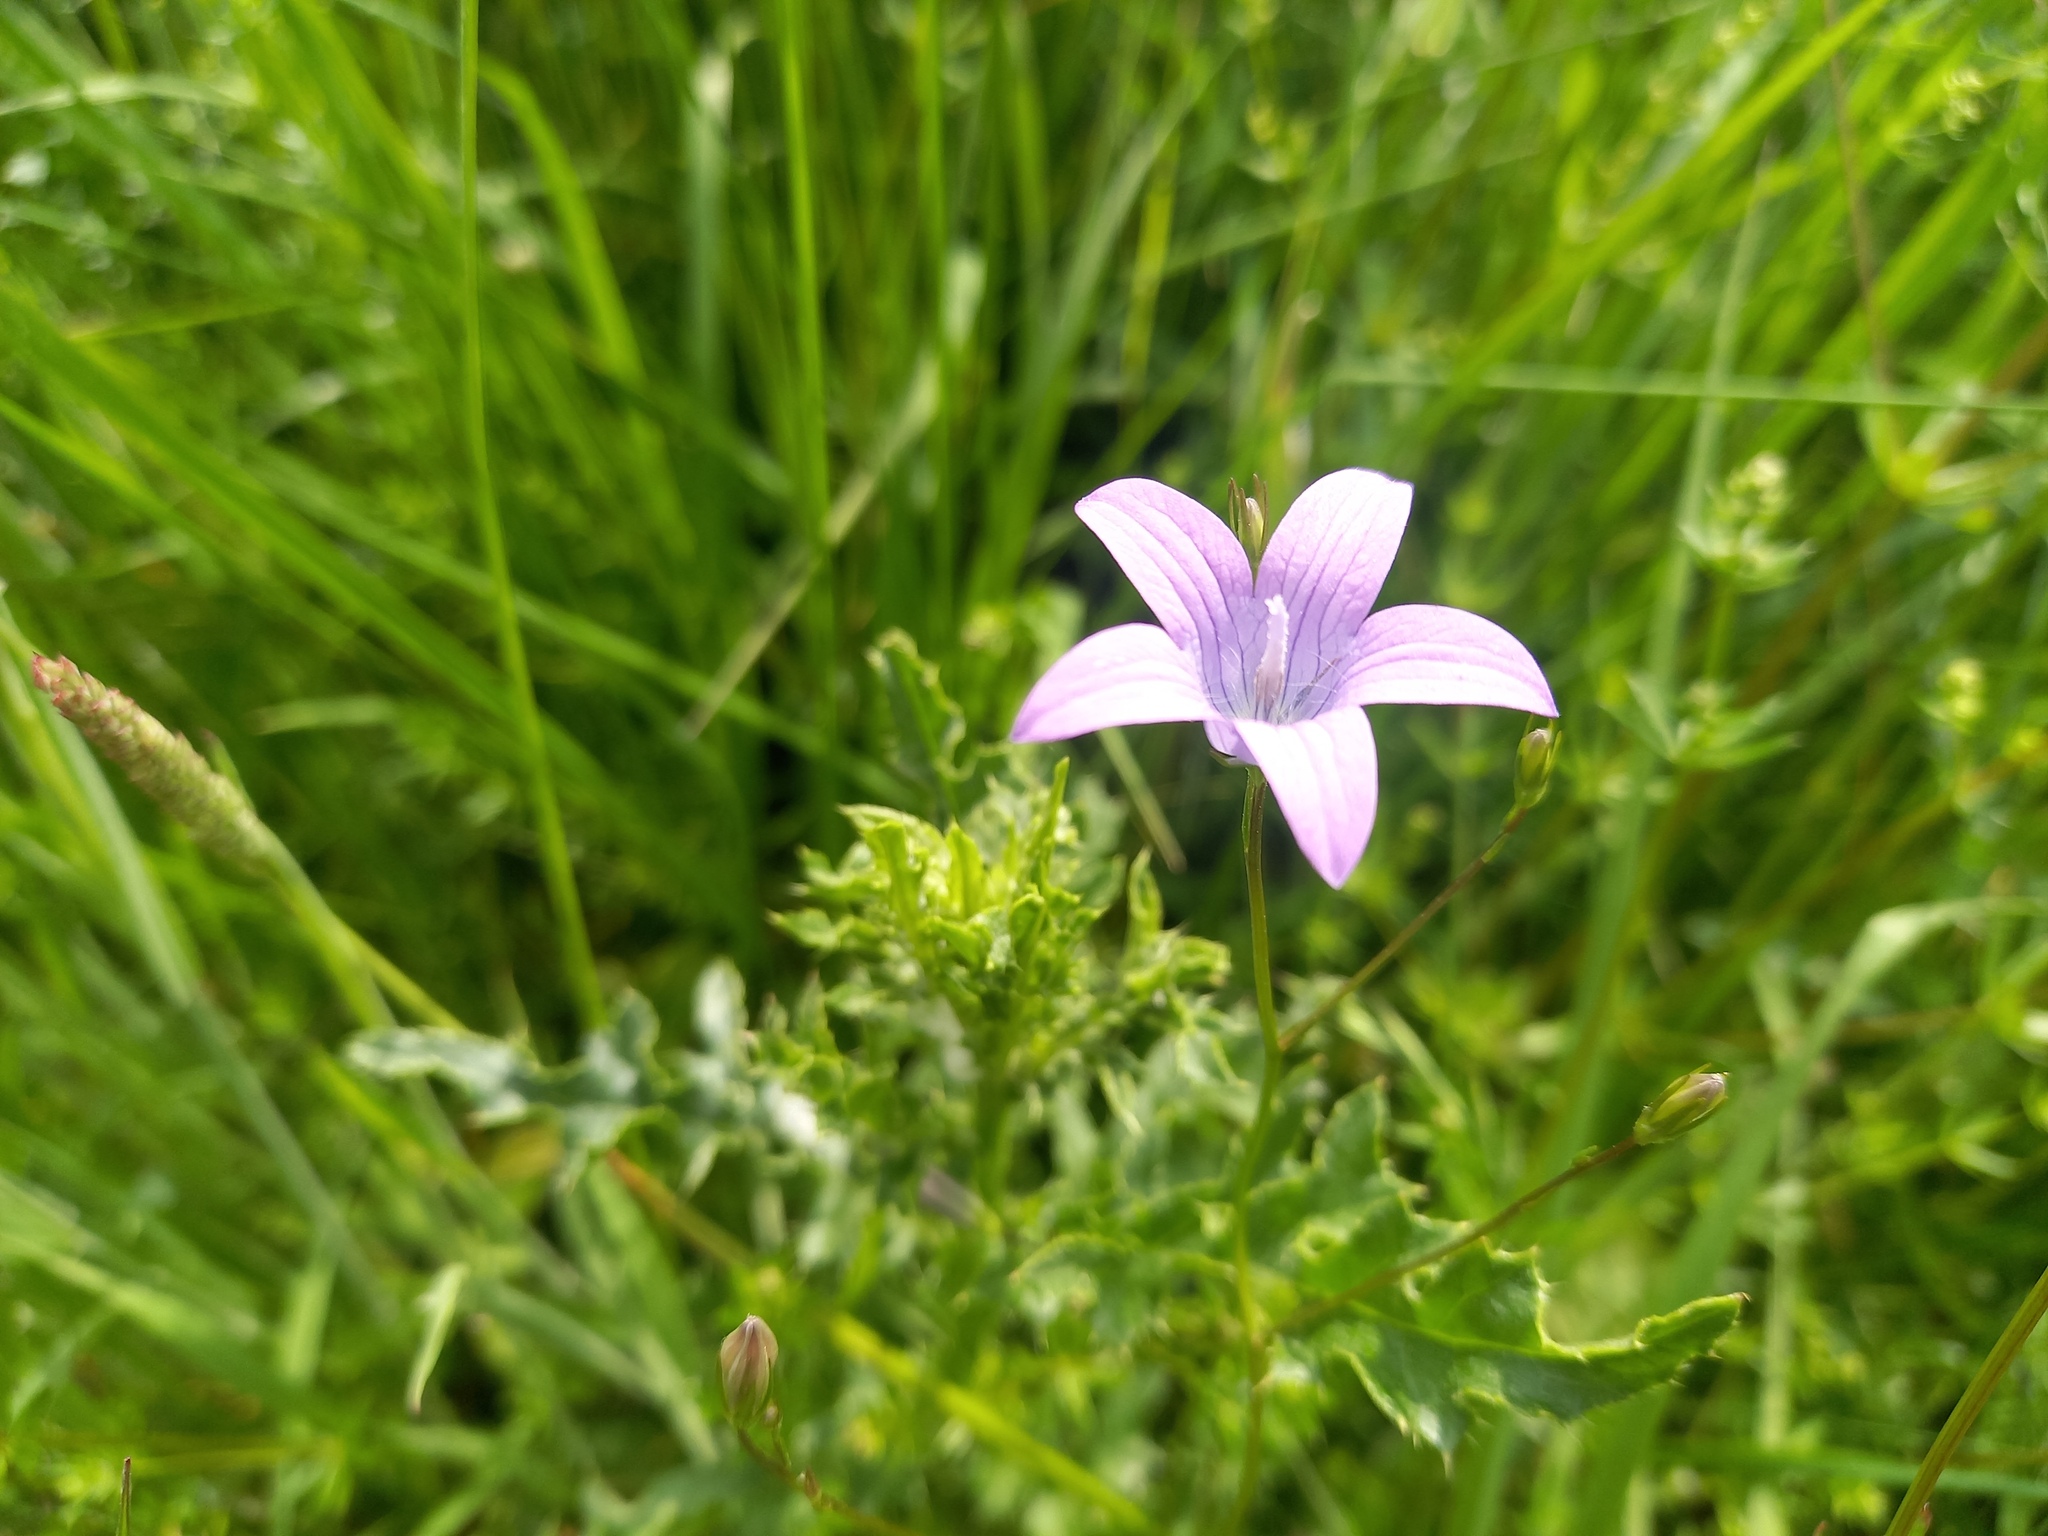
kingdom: Plantae
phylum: Tracheophyta
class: Magnoliopsida
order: Asterales
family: Campanulaceae
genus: Campanula
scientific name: Campanula patula
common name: Spreading bellflower
